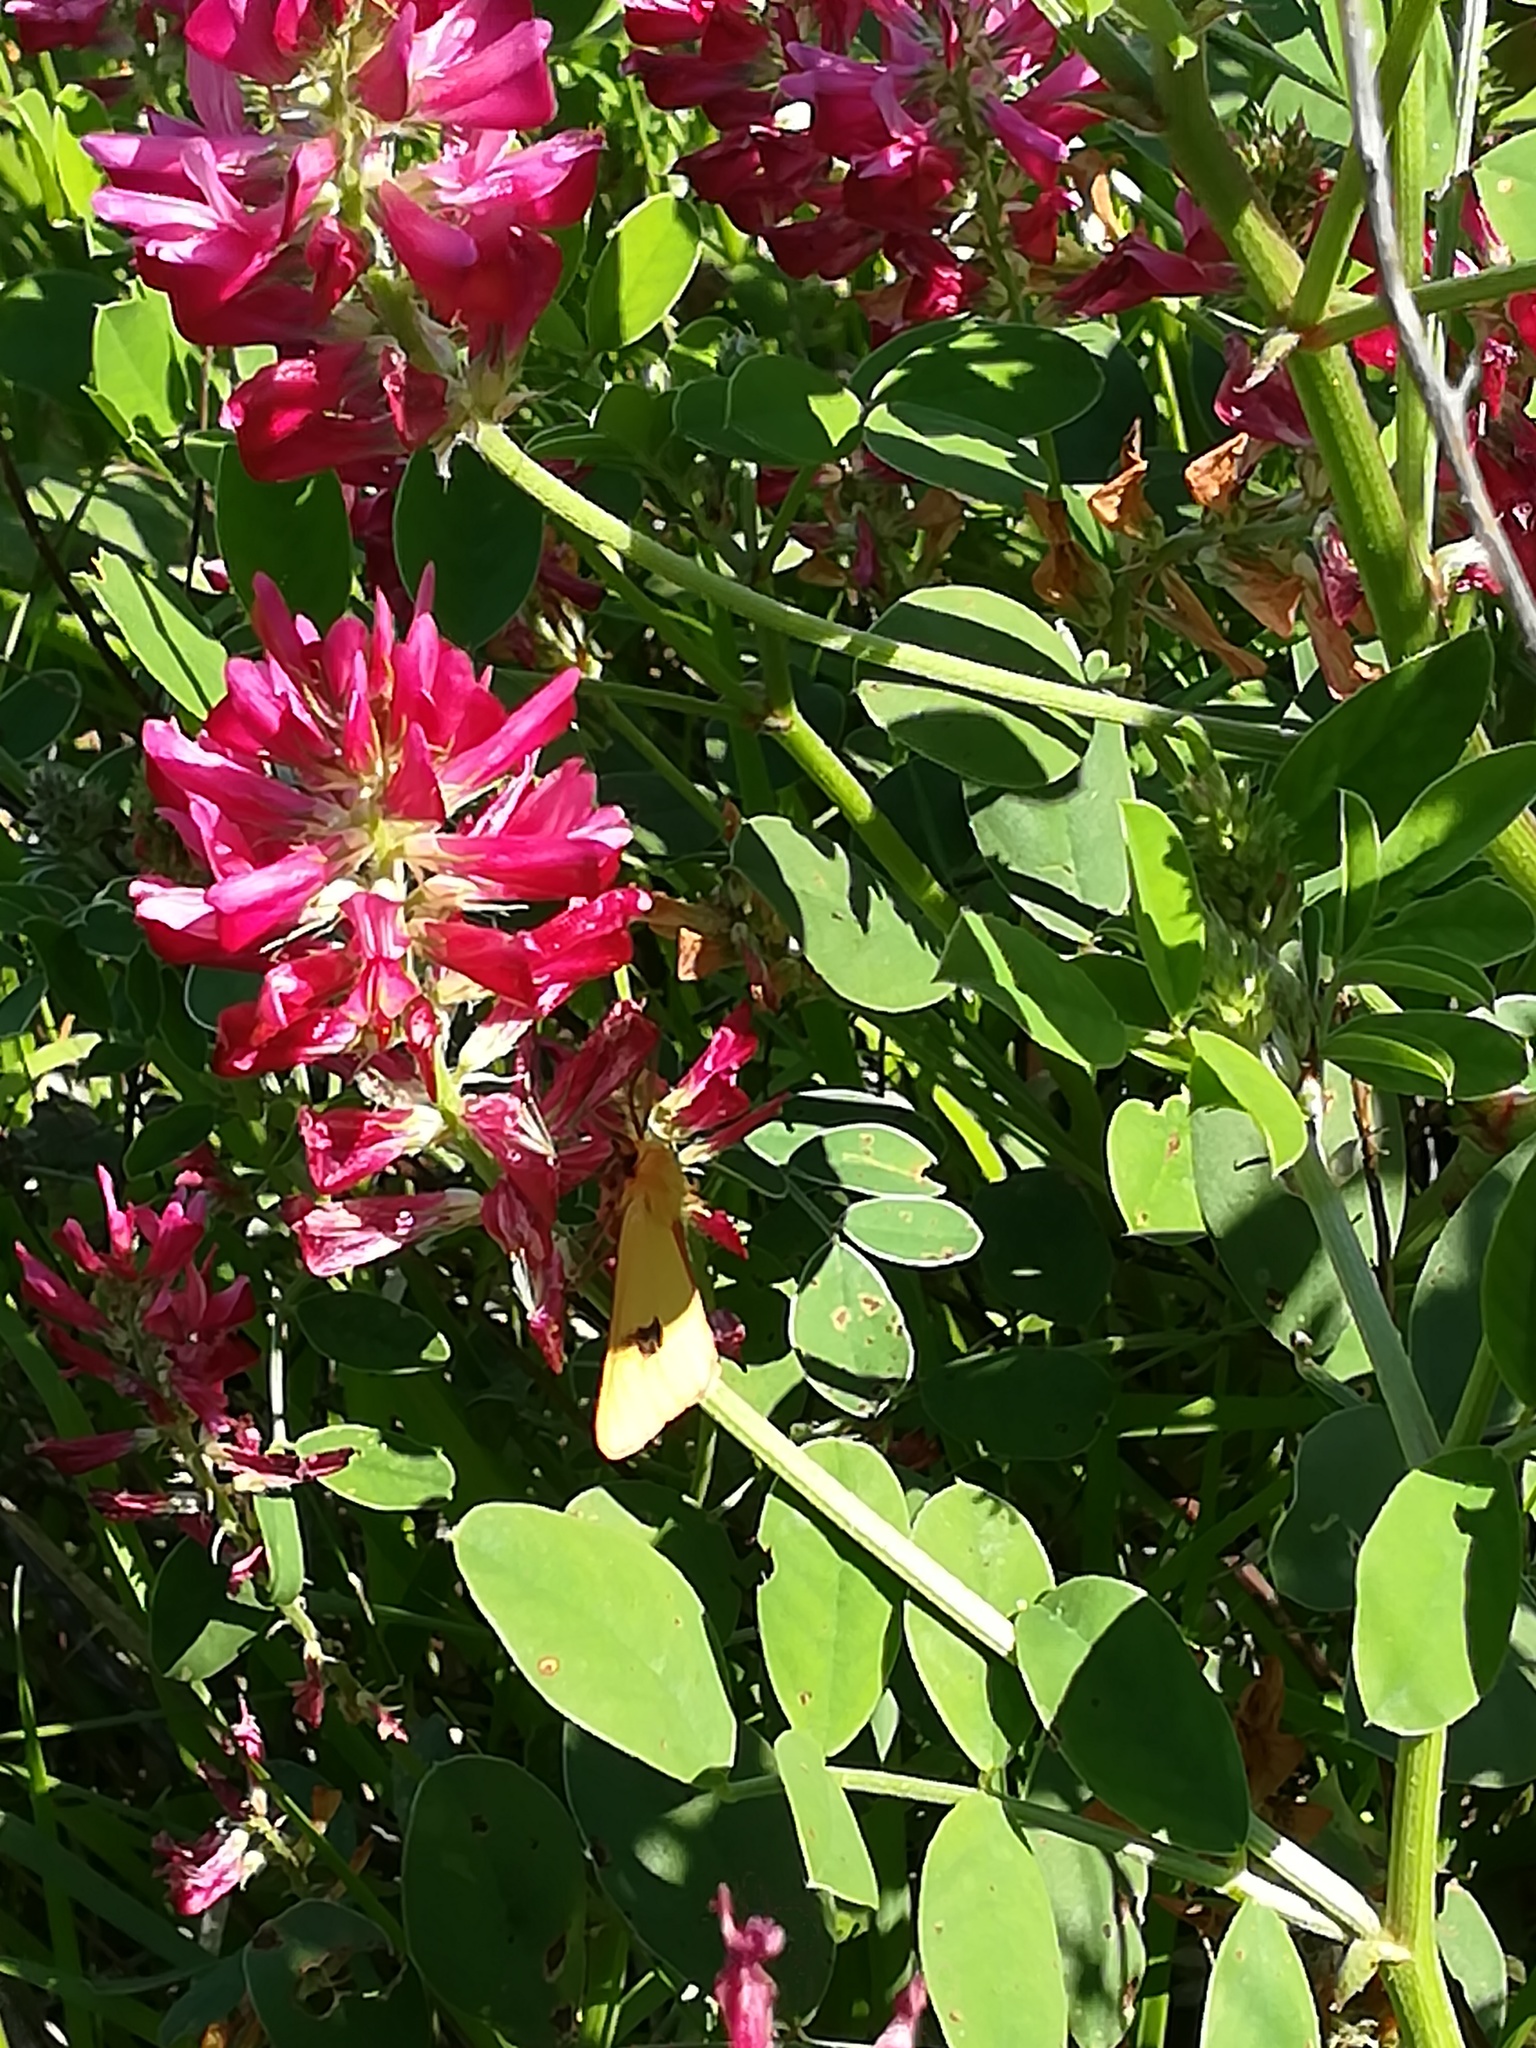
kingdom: Animalia
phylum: Arthropoda
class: Insecta
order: Lepidoptera
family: Erebidae
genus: Diacrisia
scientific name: Diacrisia sannio
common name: Clouded buff
